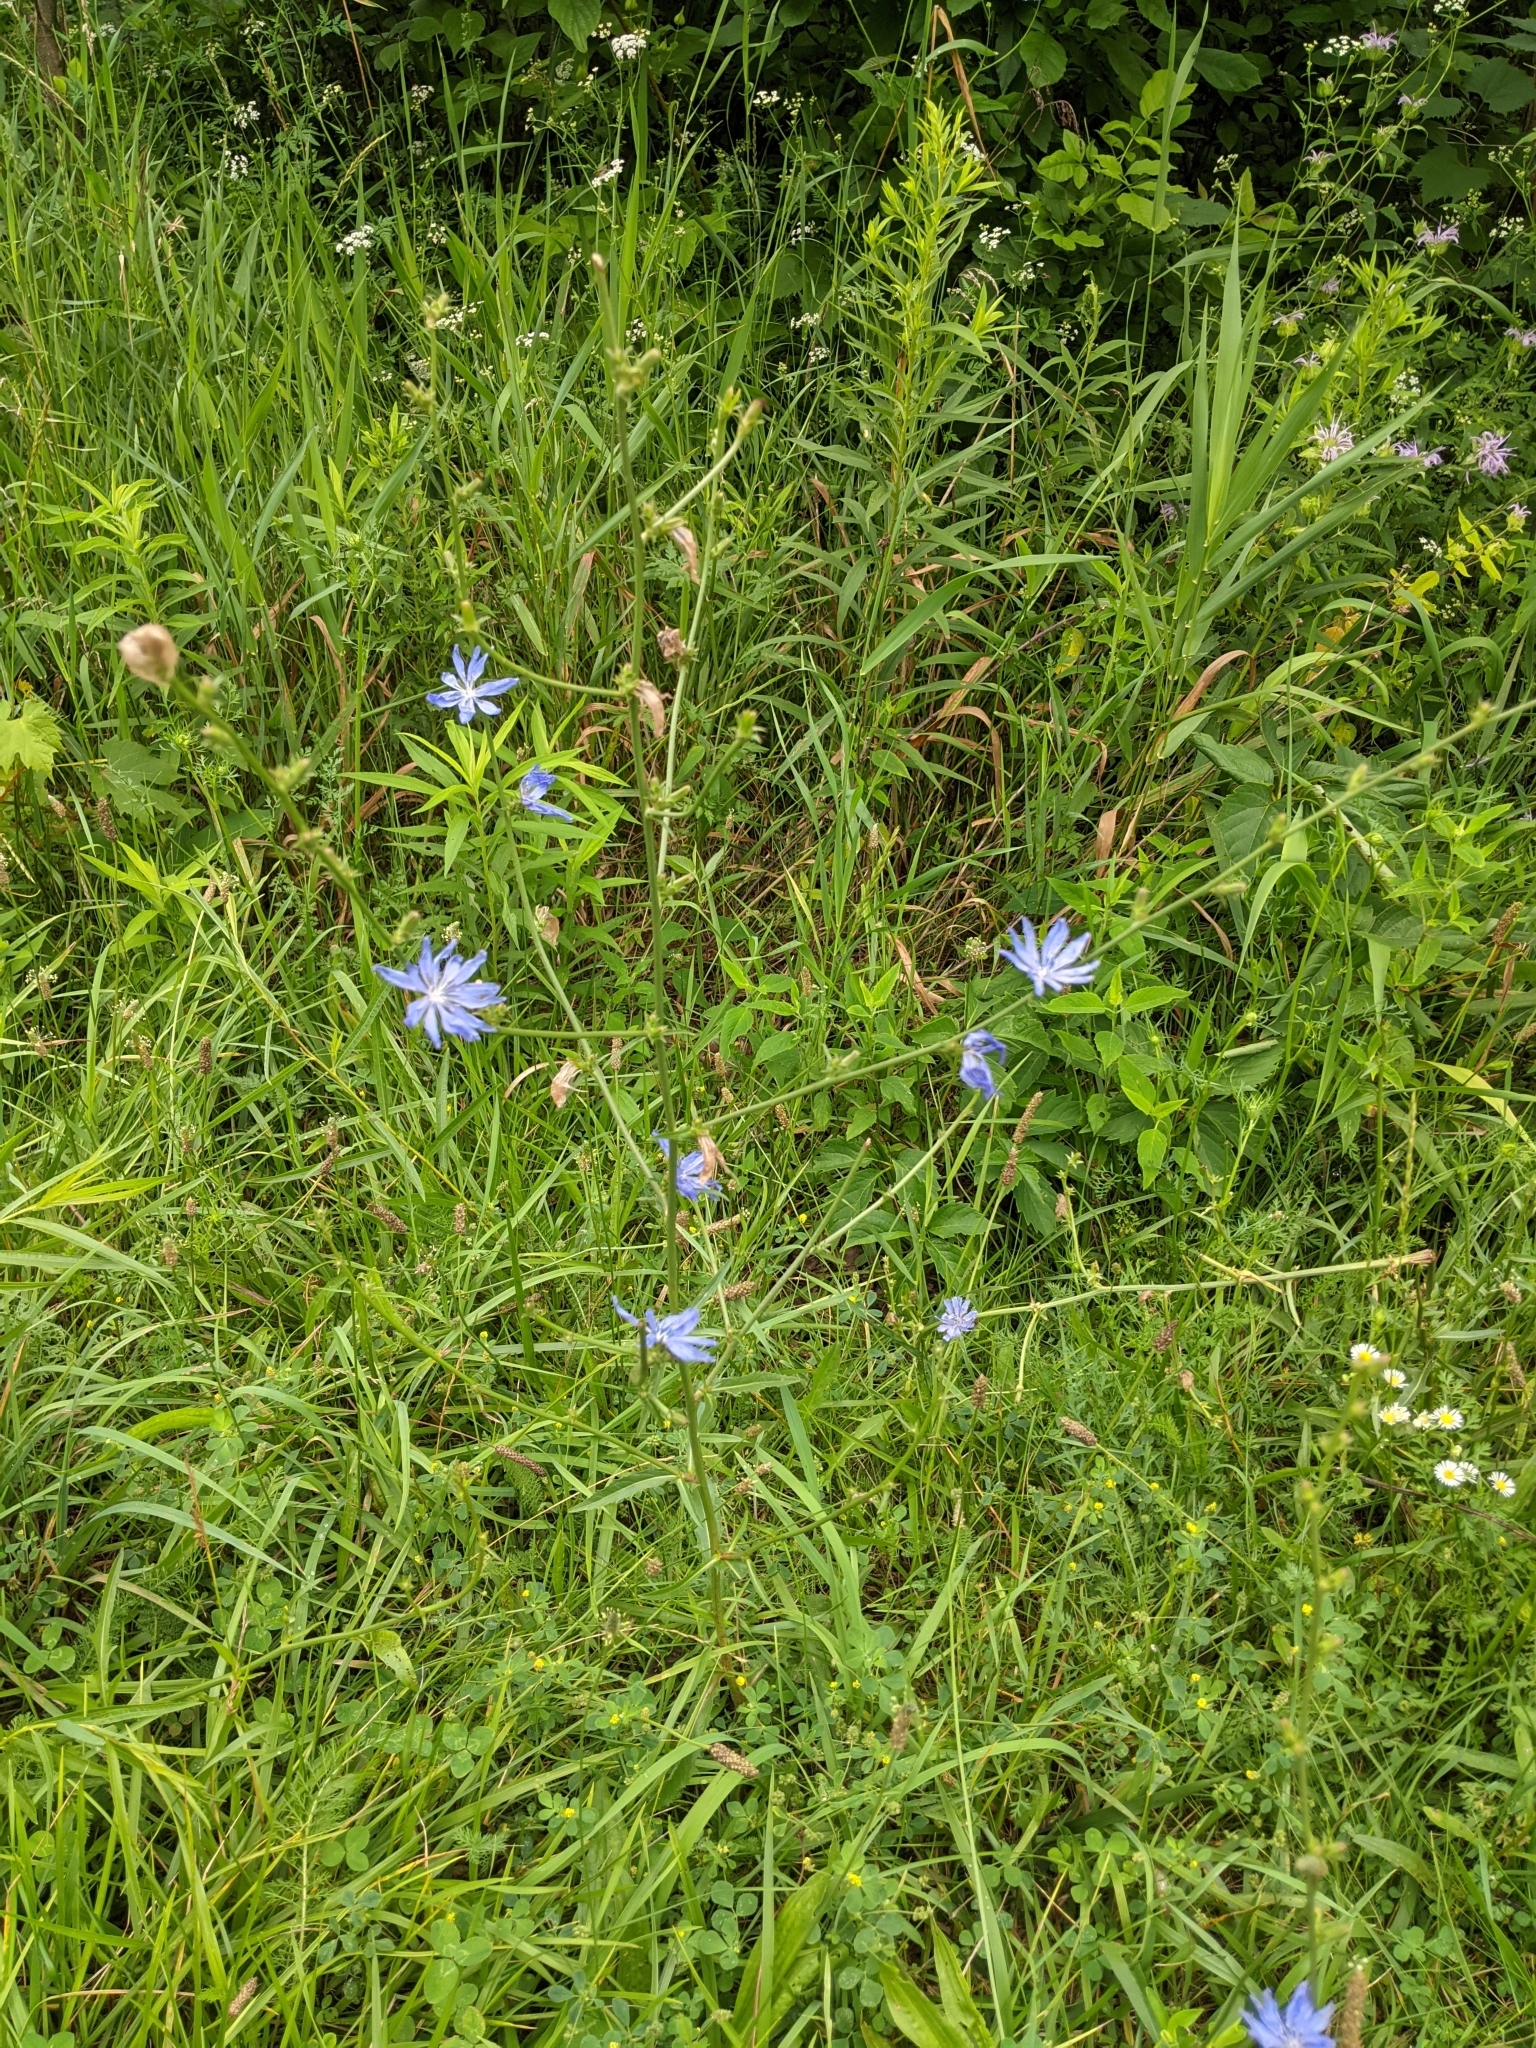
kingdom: Plantae
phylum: Tracheophyta
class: Magnoliopsida
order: Asterales
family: Asteraceae
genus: Cichorium
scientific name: Cichorium intybus
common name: Chicory
